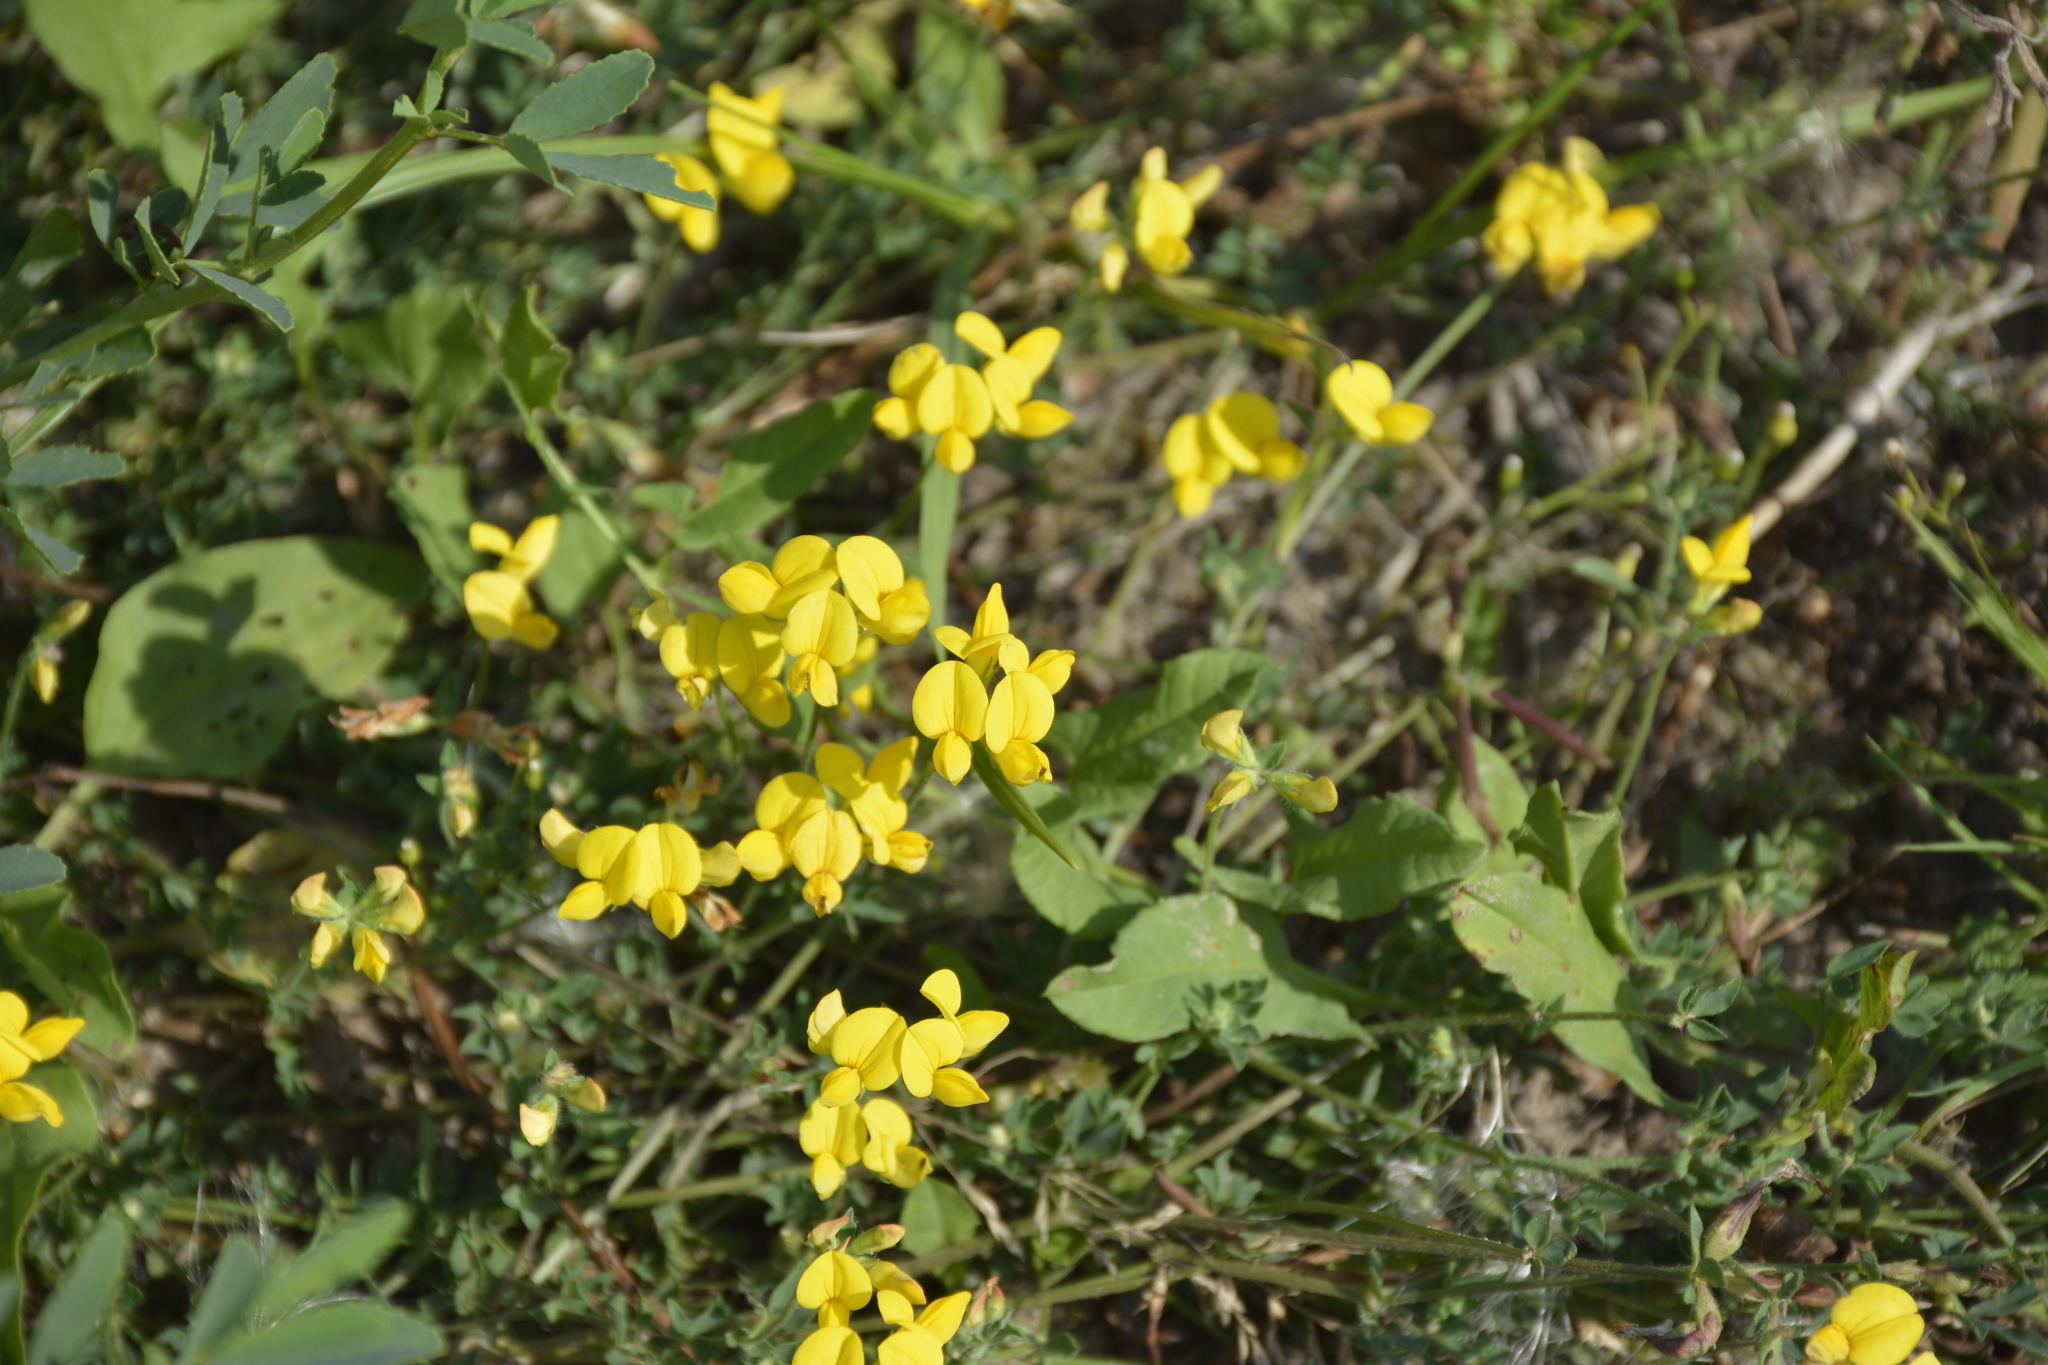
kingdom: Plantae
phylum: Tracheophyta
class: Magnoliopsida
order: Fabales
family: Fabaceae
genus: Lotus
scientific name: Lotus corniculatus
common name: Common bird's-foot-trefoil
